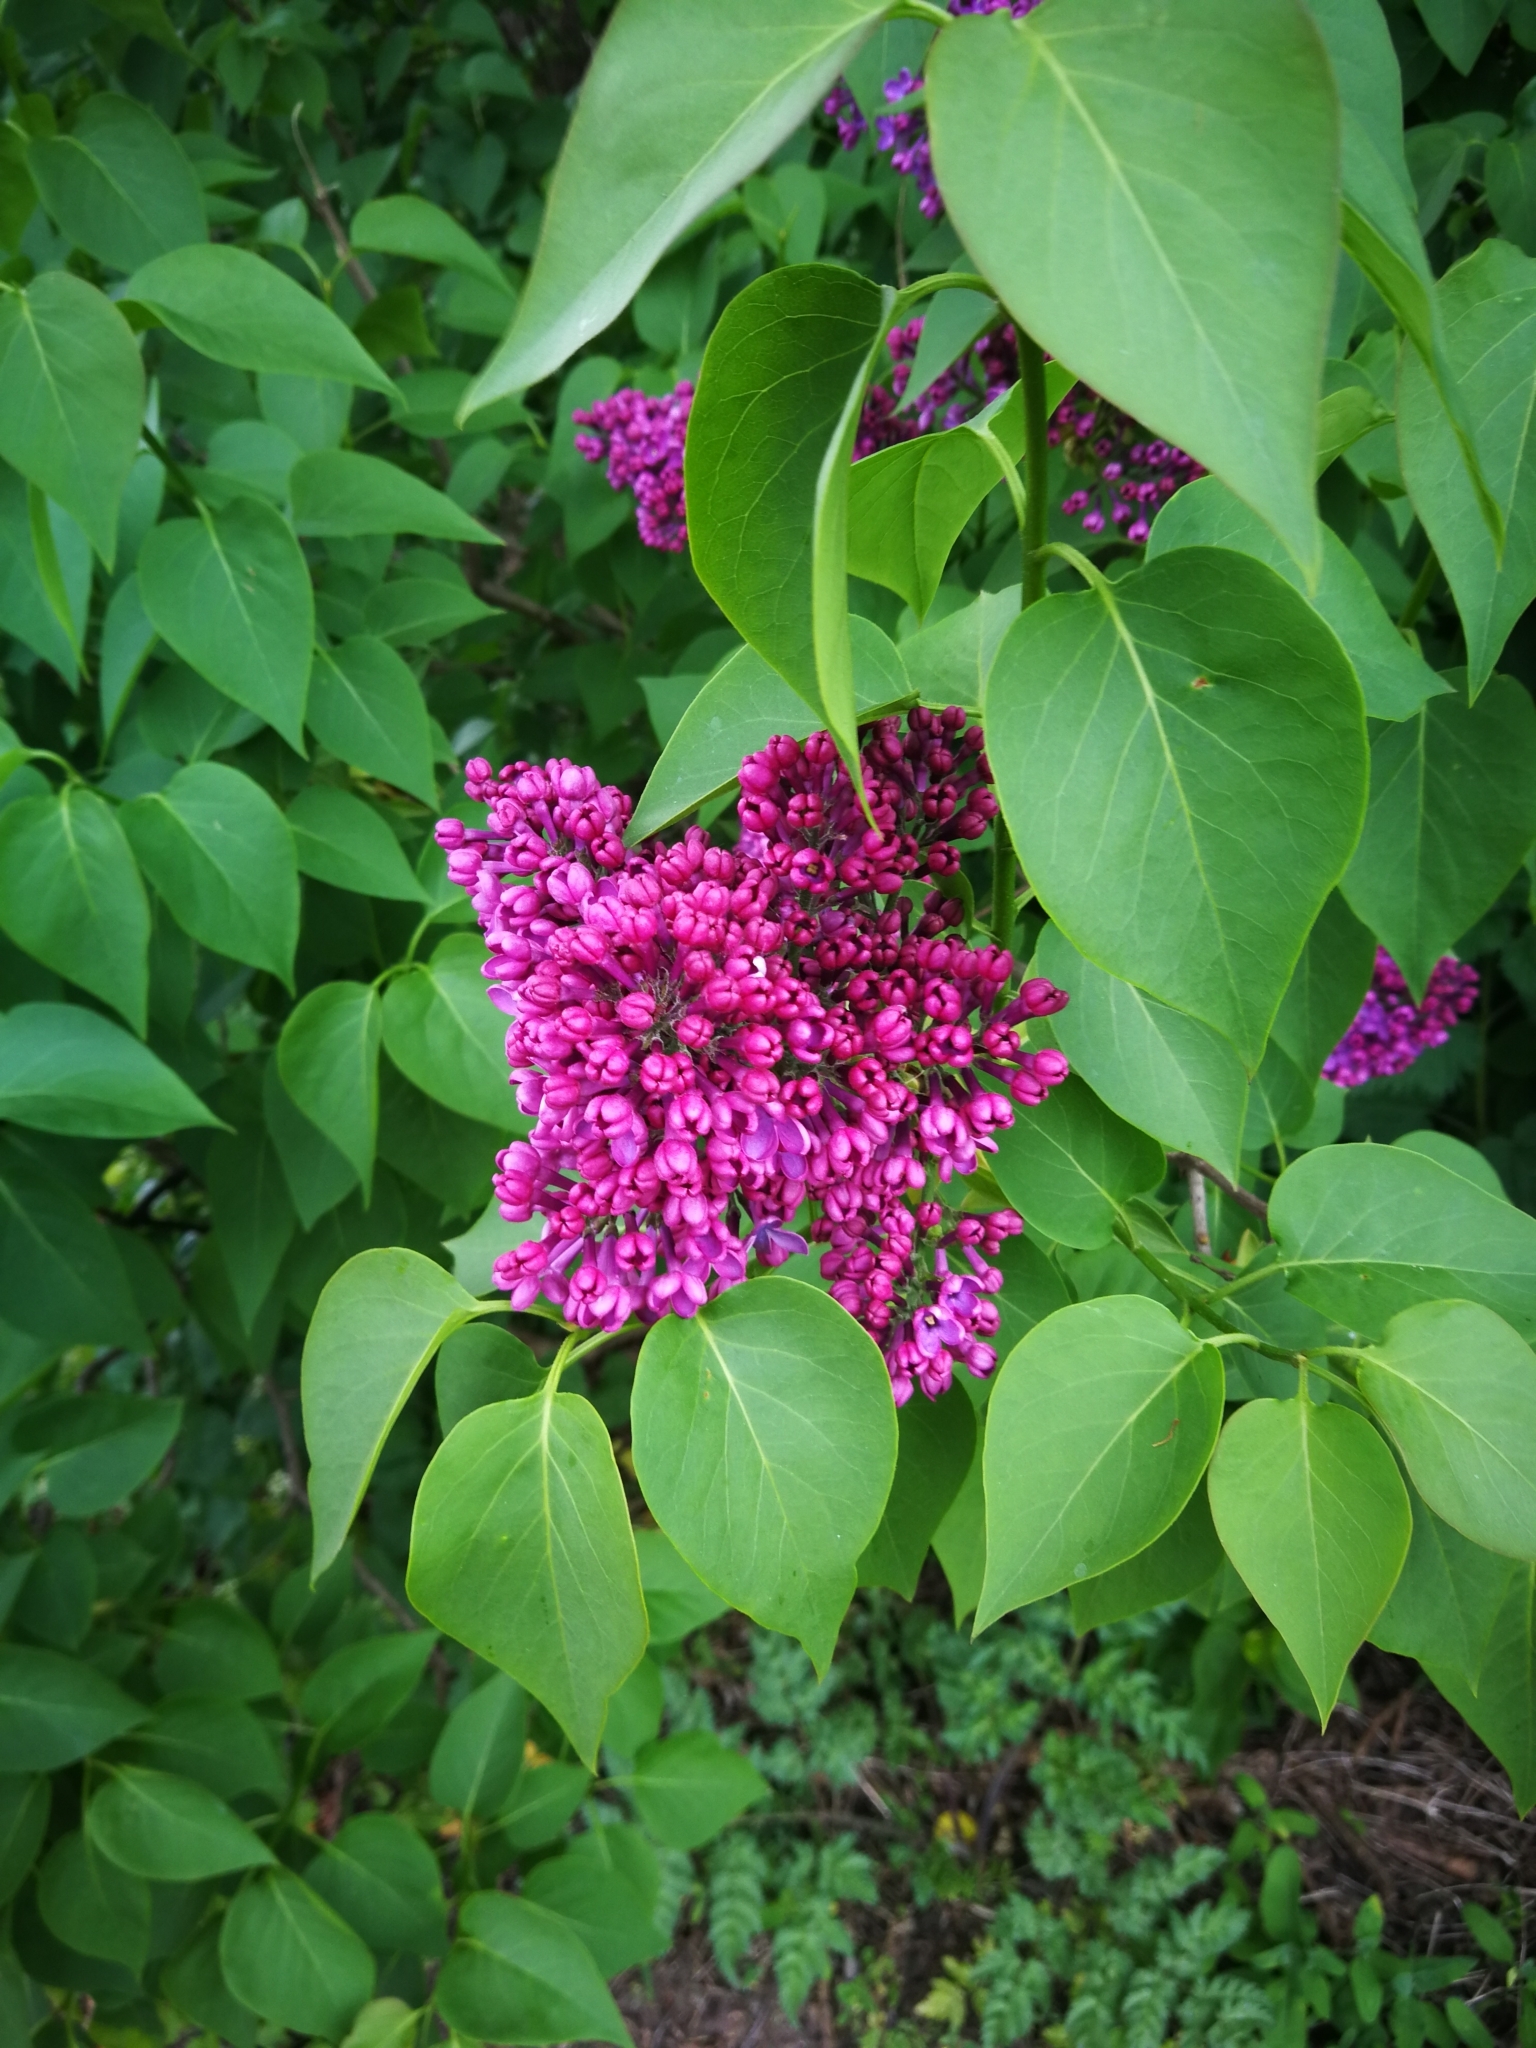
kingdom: Plantae
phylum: Tracheophyta
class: Magnoliopsida
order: Lamiales
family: Oleaceae
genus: Syringa
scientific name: Syringa vulgaris
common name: Common lilac
